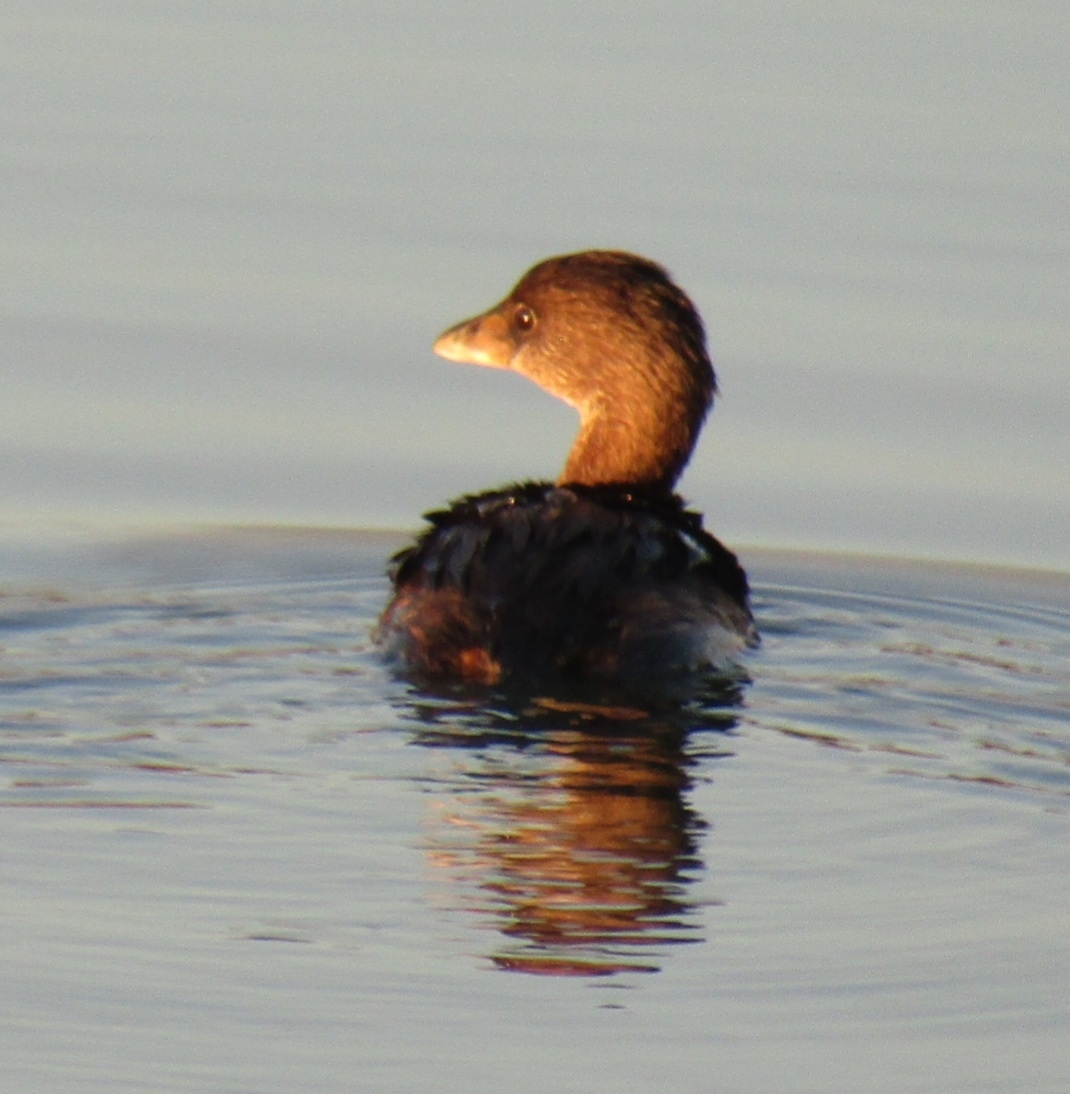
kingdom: Animalia
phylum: Chordata
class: Aves
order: Podicipediformes
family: Podicipedidae
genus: Podilymbus
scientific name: Podilymbus podiceps
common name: Pied-billed grebe
